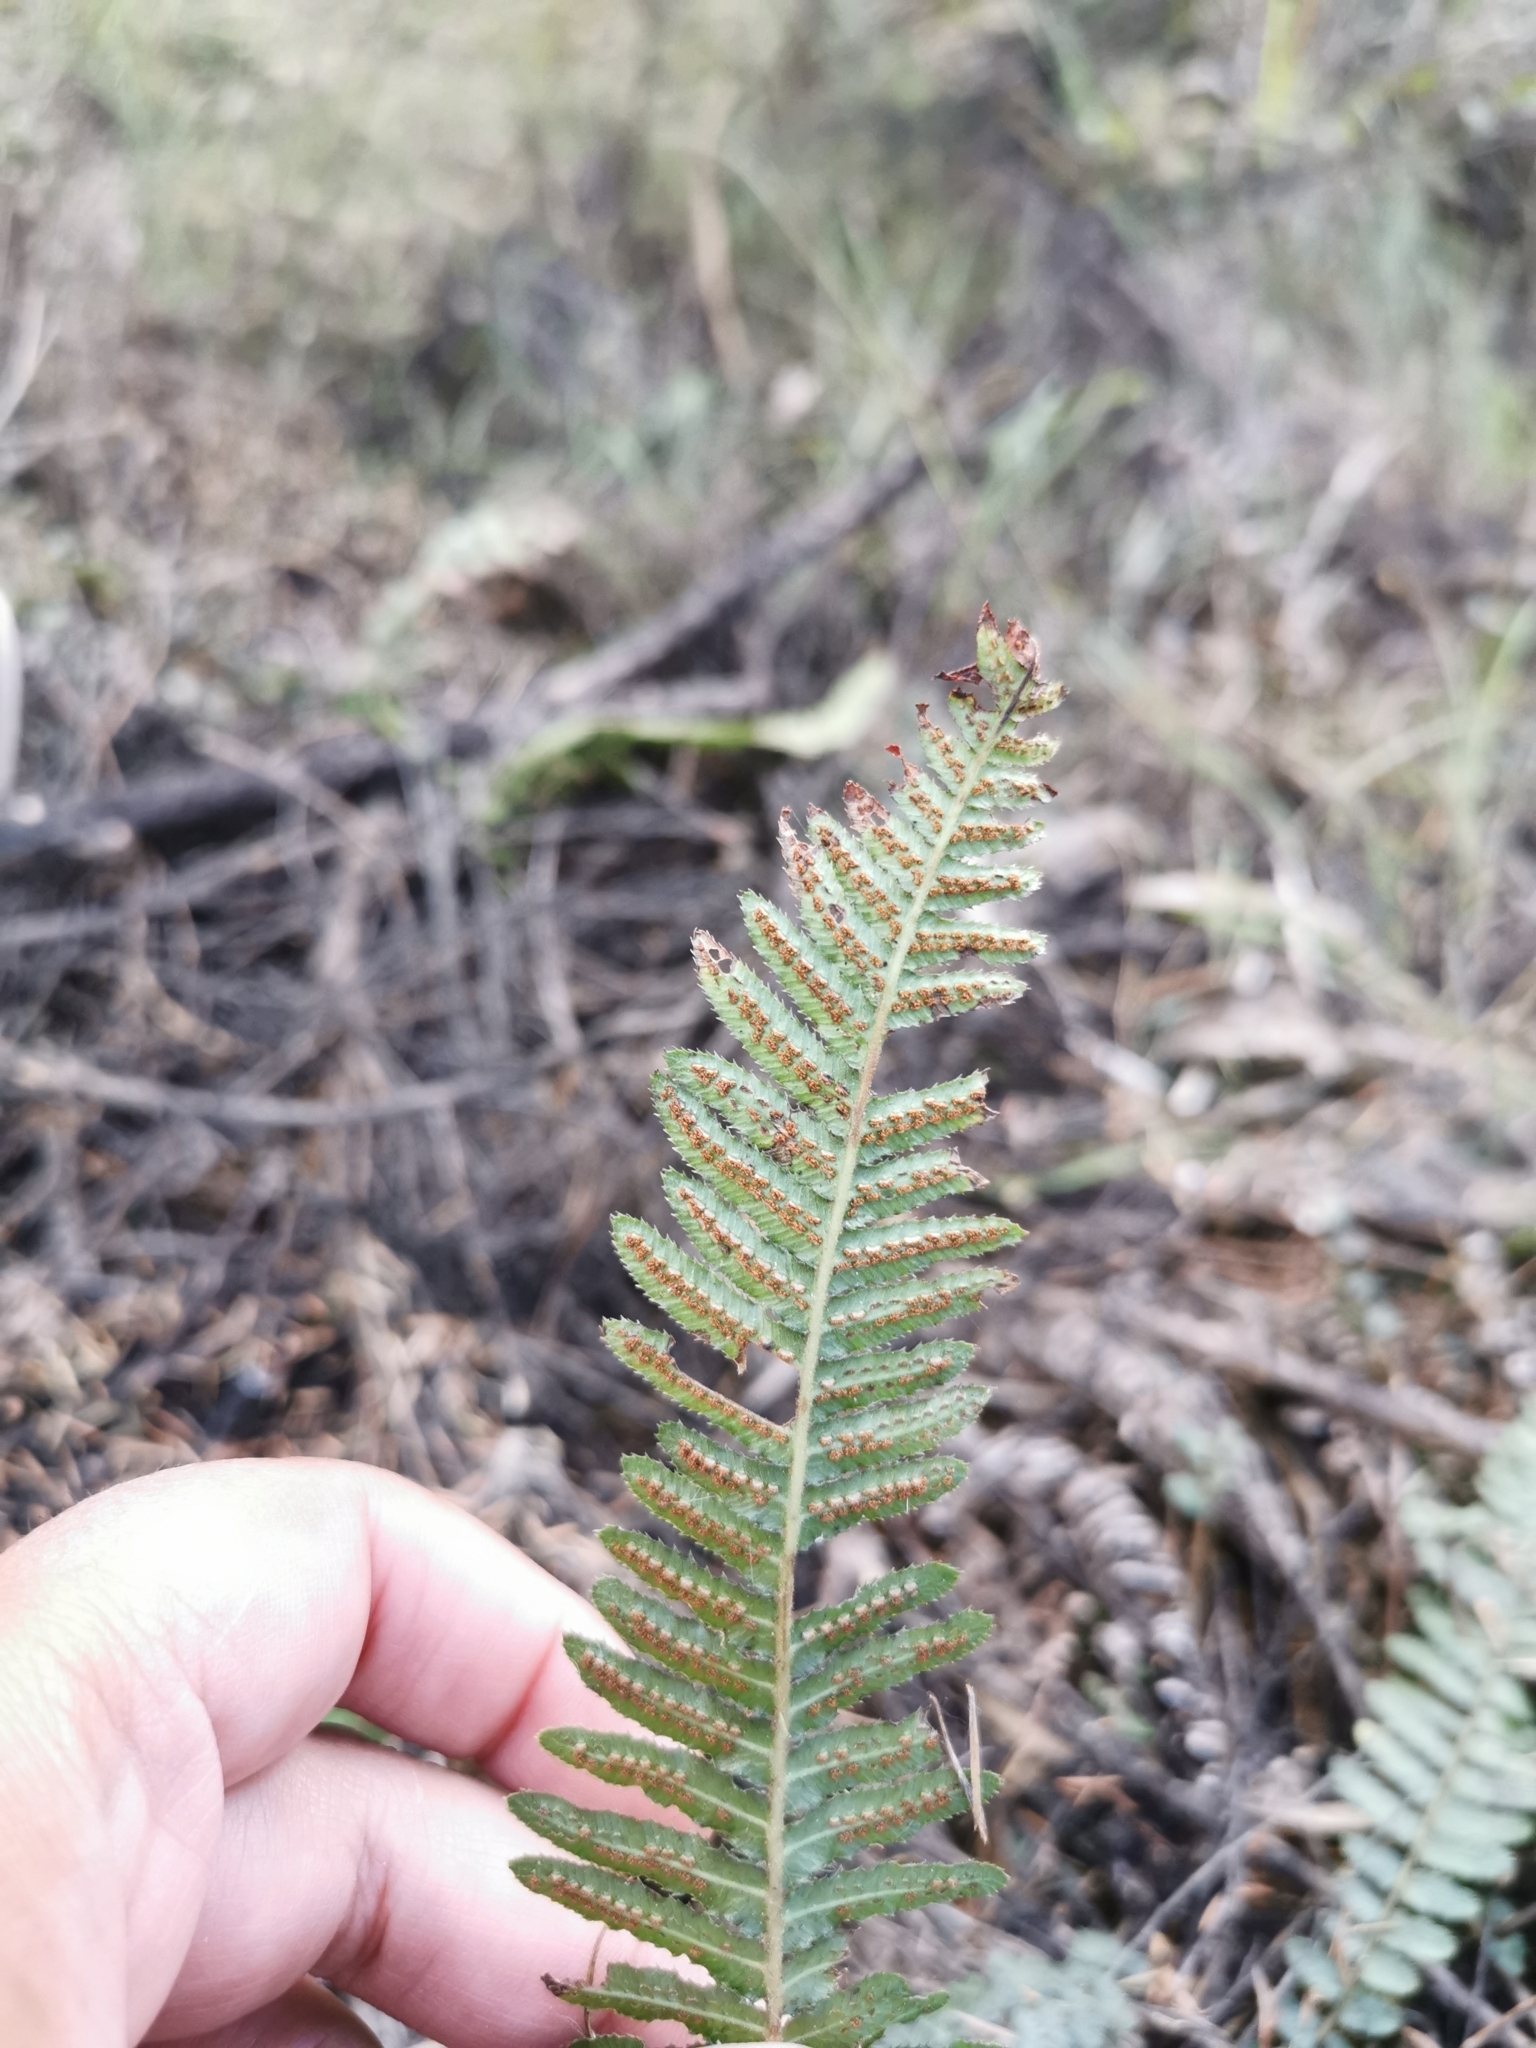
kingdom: Plantae
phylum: Tracheophyta
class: Polypodiopsida
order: Polypodiales
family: Blechnaceae
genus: Doodia
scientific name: Doodia australis
